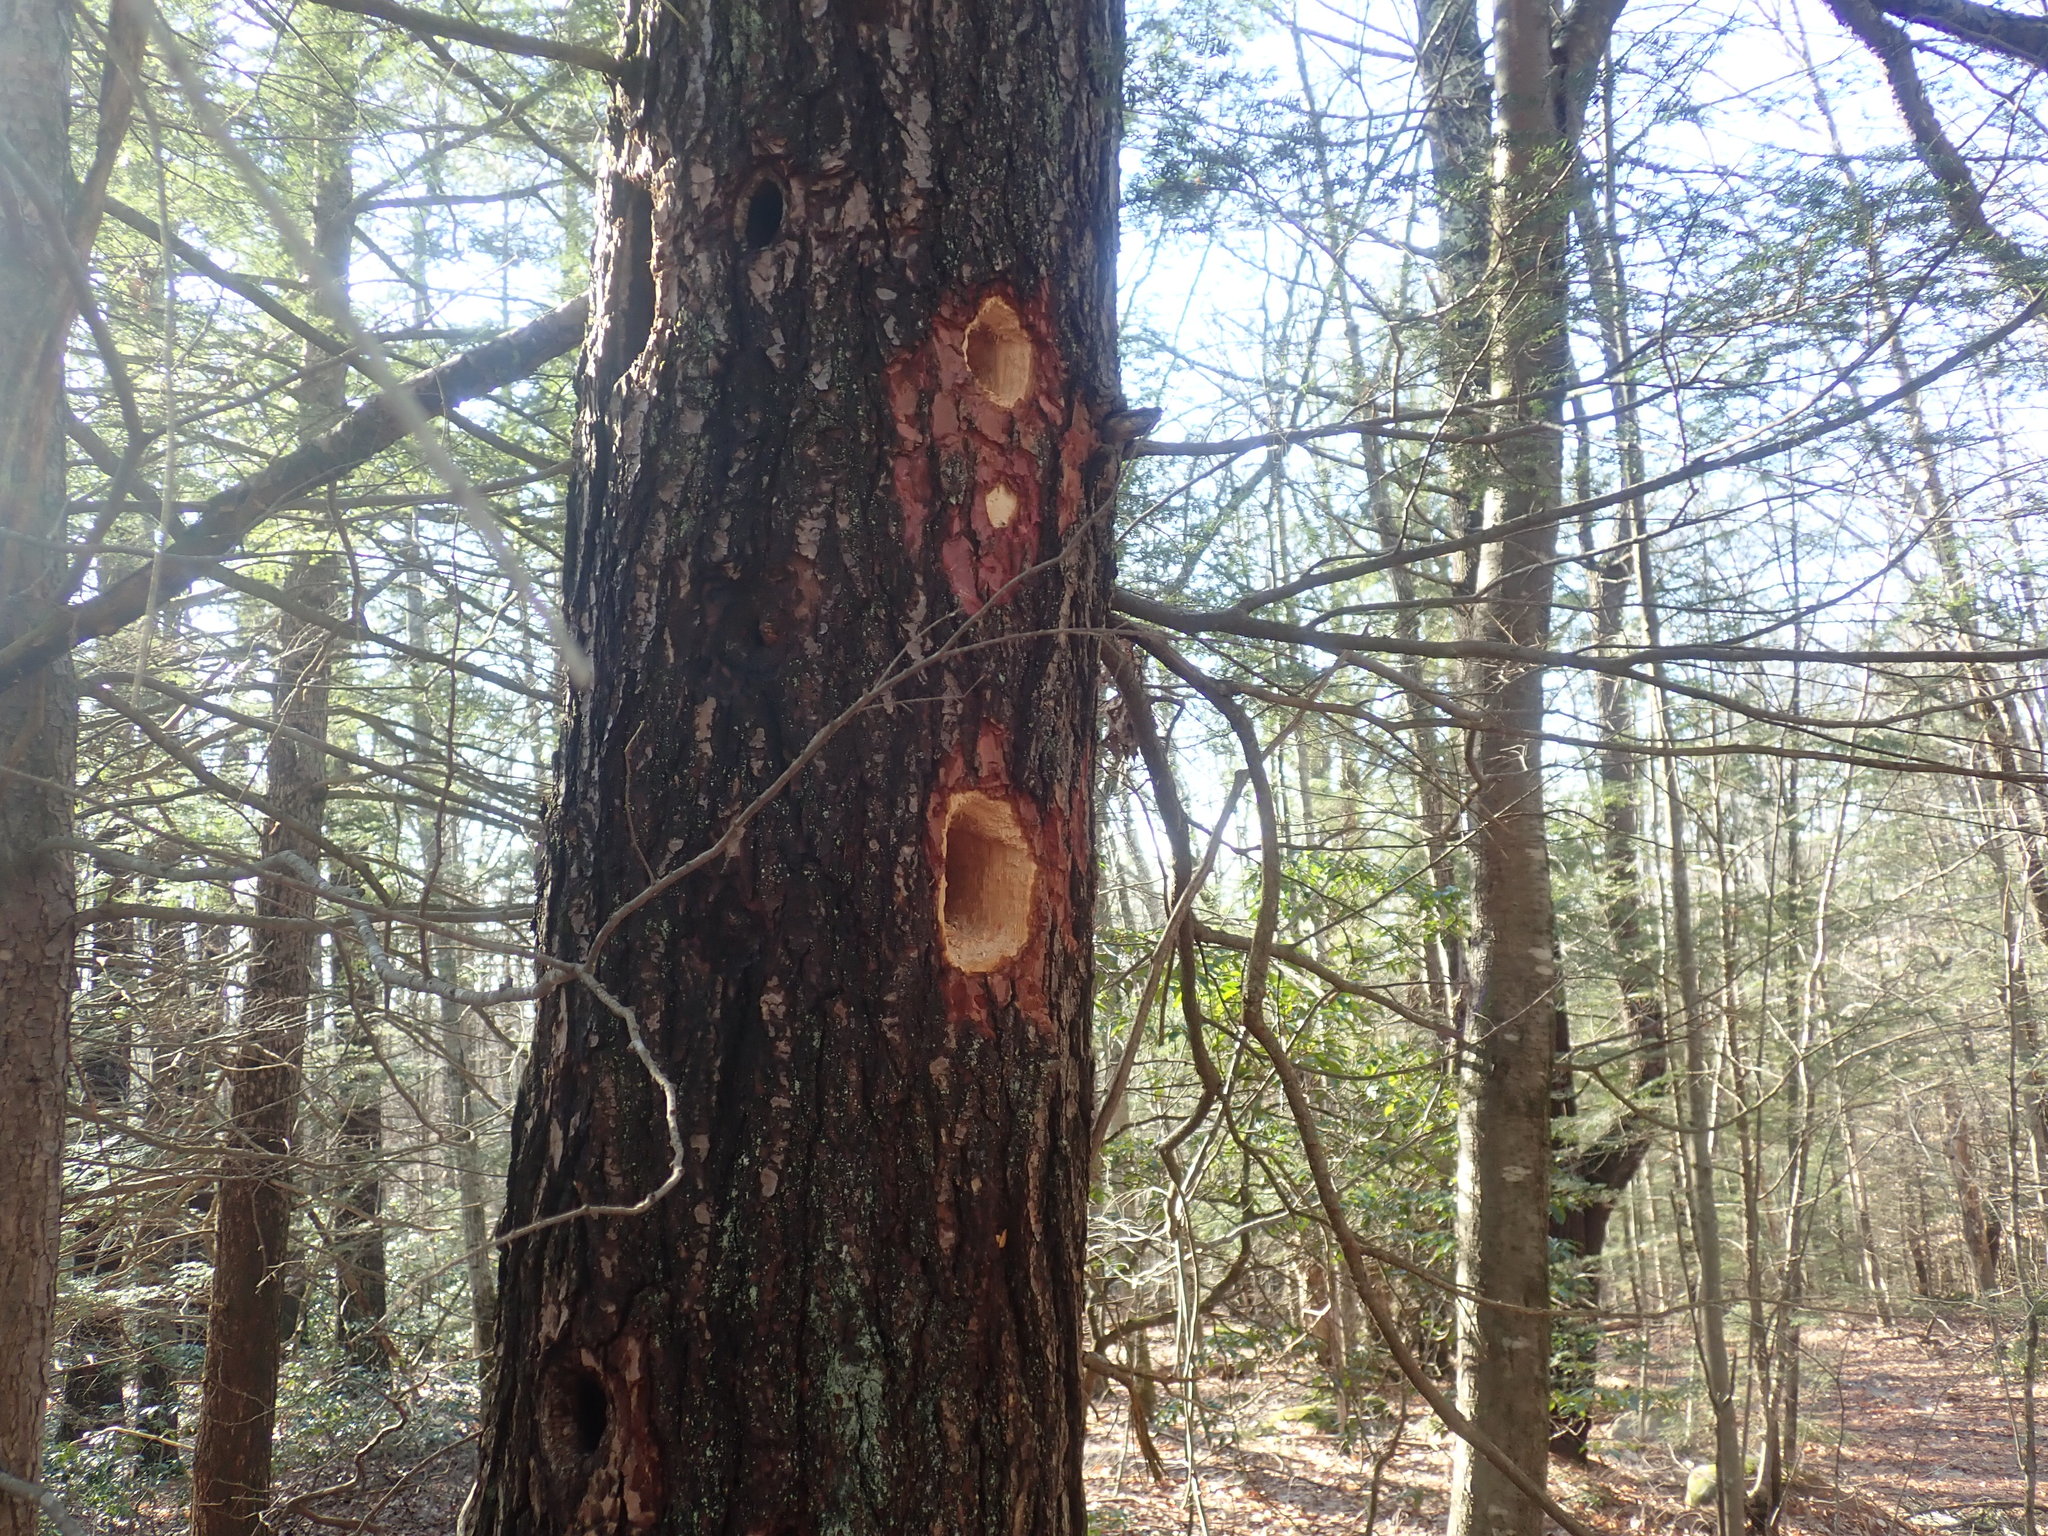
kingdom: Animalia
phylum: Chordata
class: Aves
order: Piciformes
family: Picidae
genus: Dryocopus
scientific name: Dryocopus pileatus
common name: Pileated woodpecker
